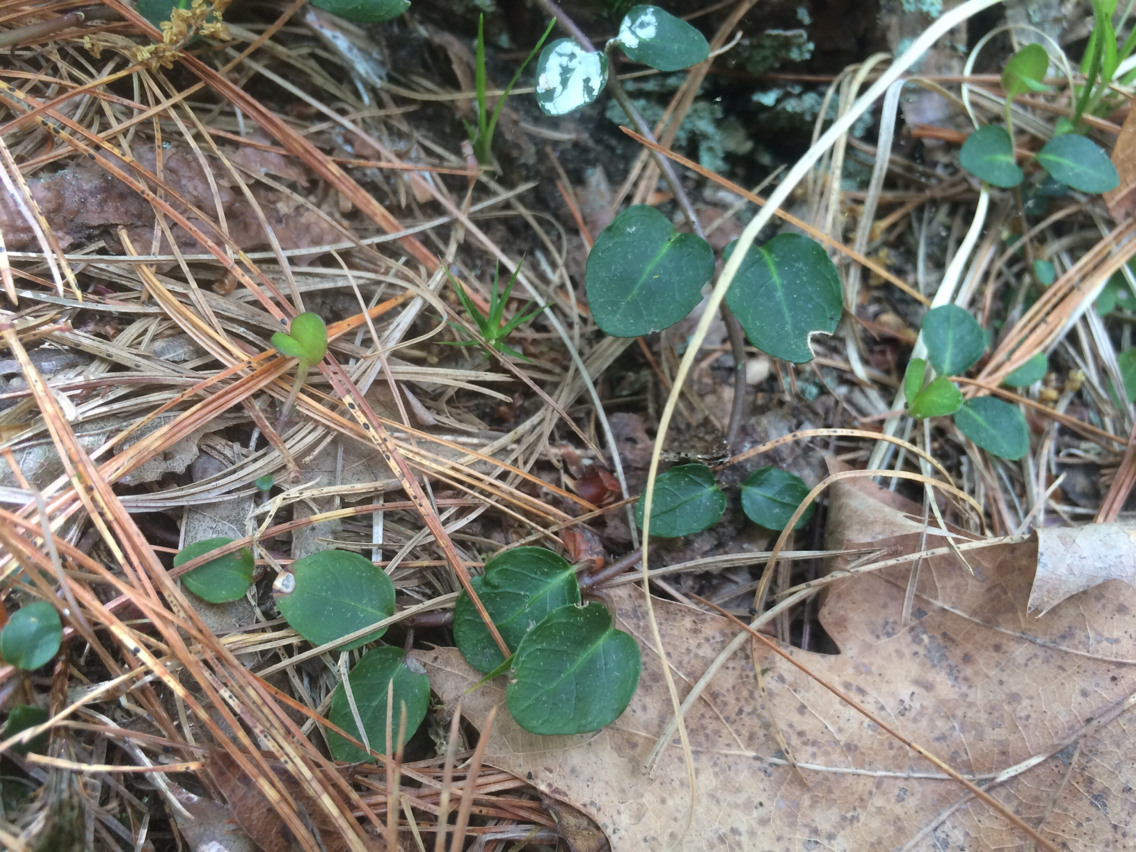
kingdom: Plantae
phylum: Tracheophyta
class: Magnoliopsida
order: Gentianales
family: Rubiaceae
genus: Mitchella
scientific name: Mitchella repens
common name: Partridge-berry
